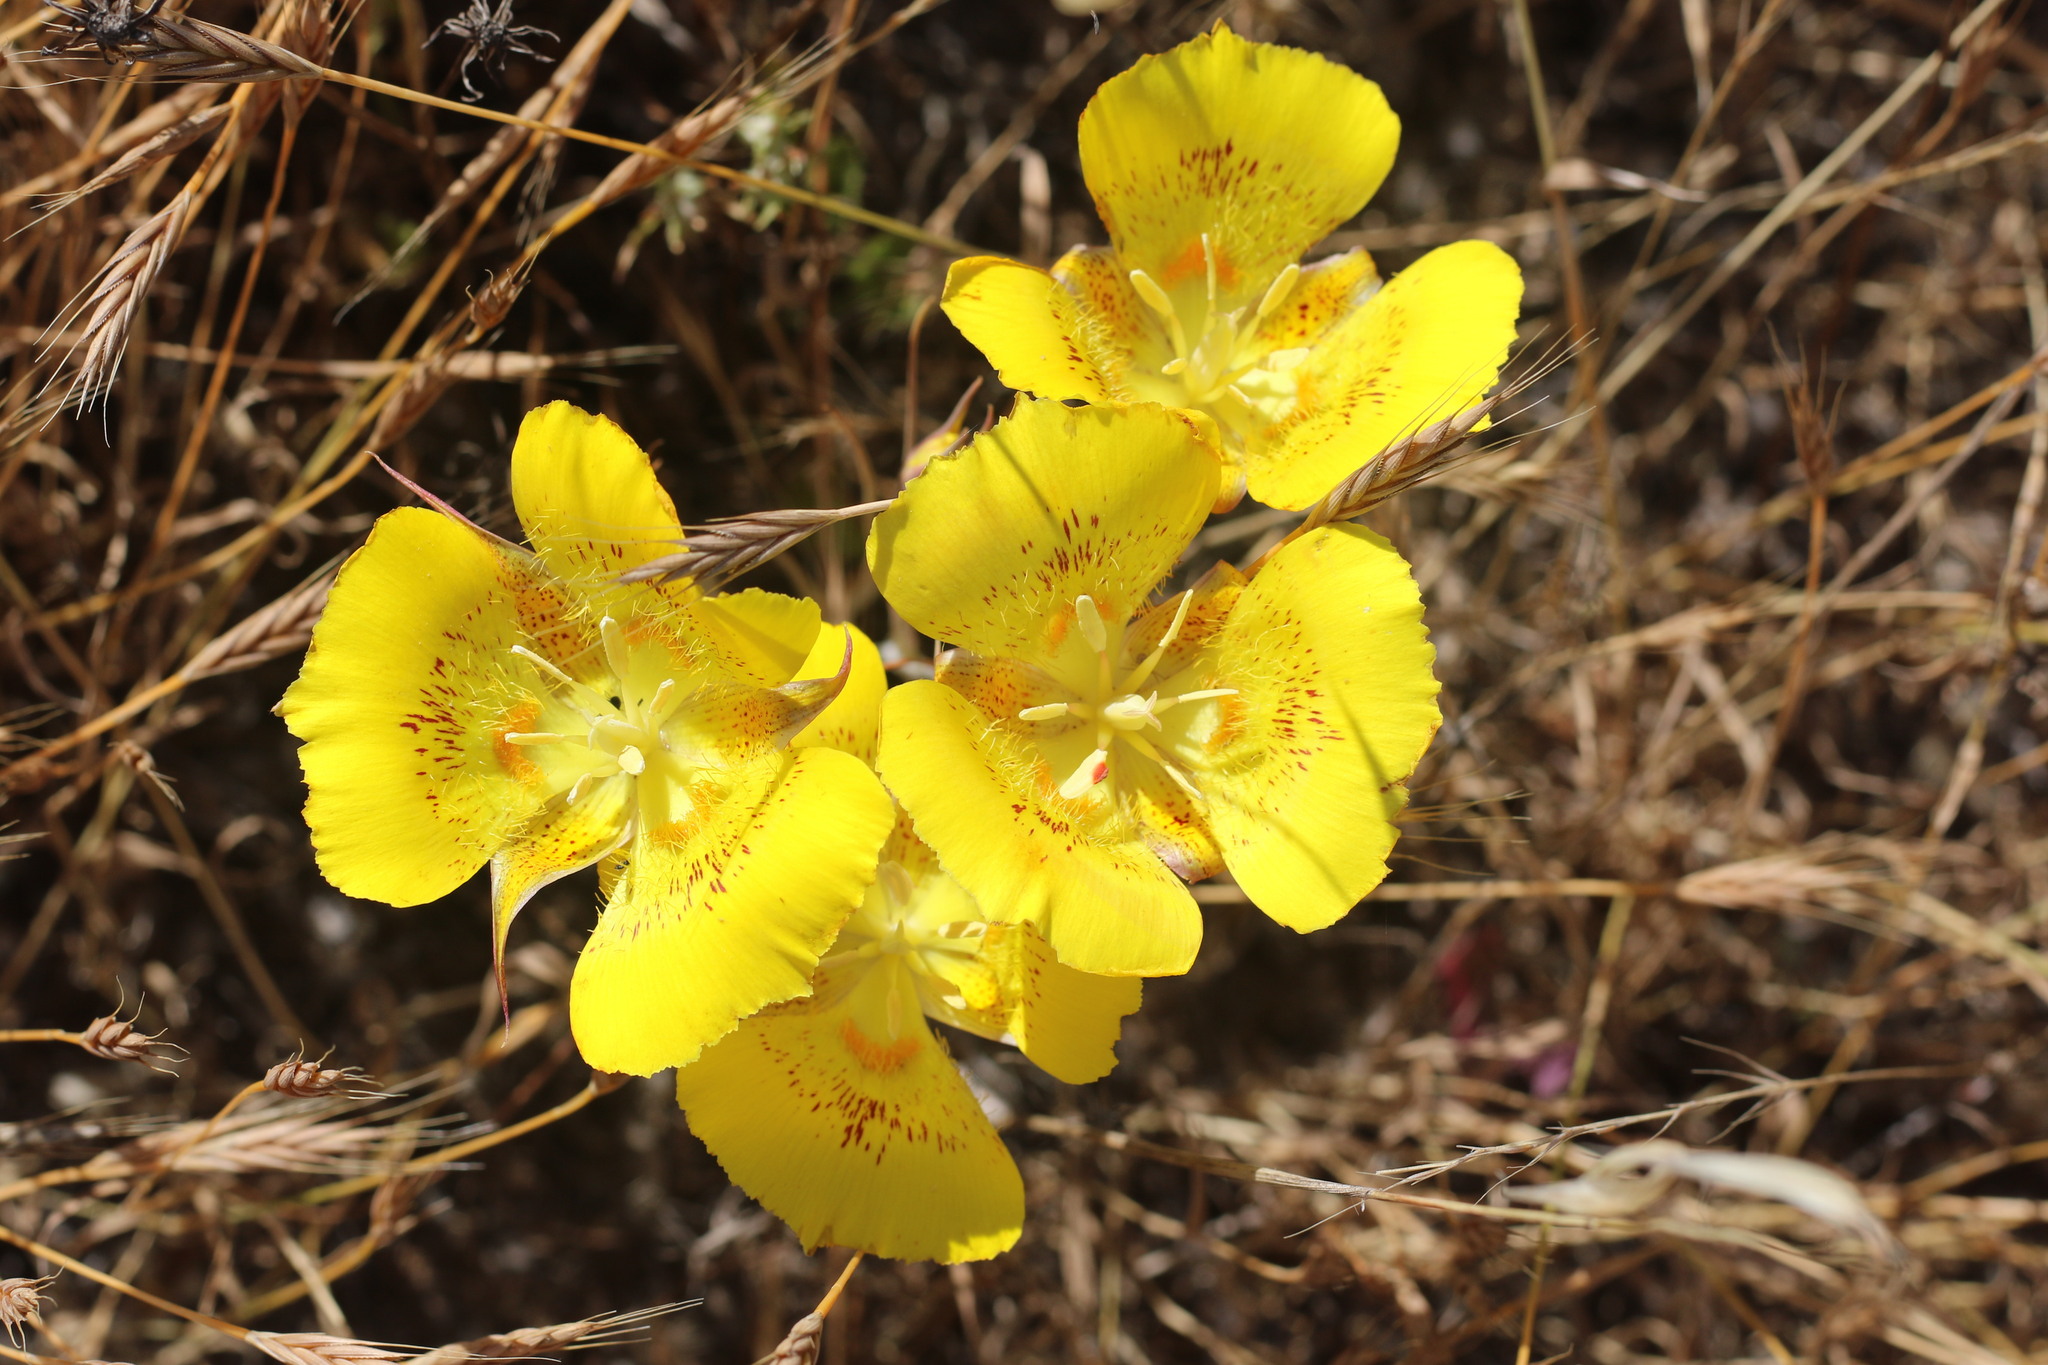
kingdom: Plantae
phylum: Tracheophyta
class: Liliopsida
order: Liliales
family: Liliaceae
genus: Calochortus
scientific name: Calochortus luteus
